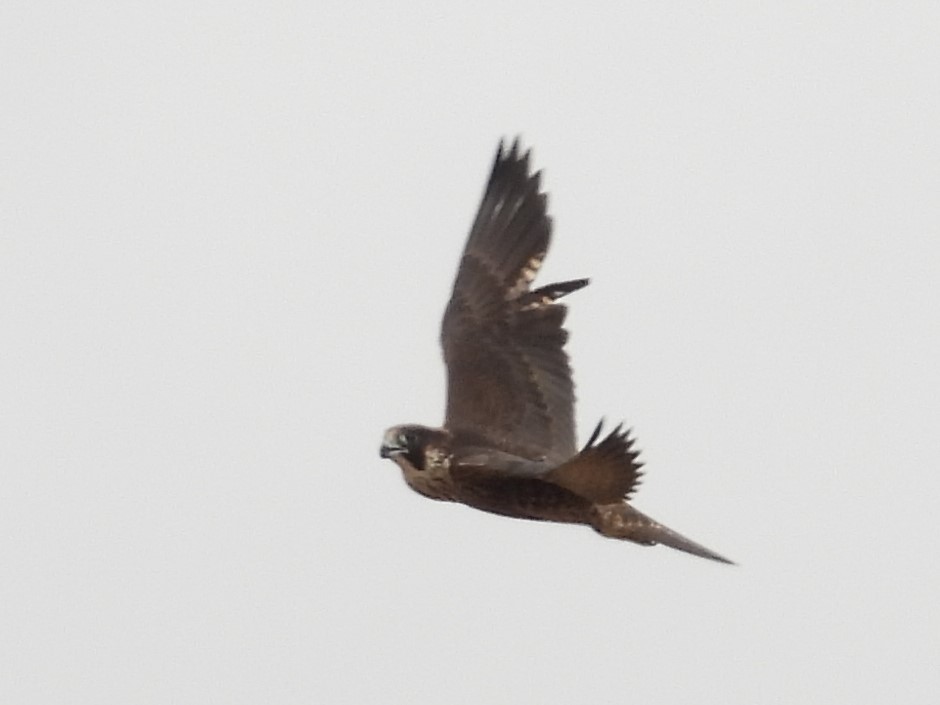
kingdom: Animalia
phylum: Chordata
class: Aves
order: Falconiformes
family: Falconidae
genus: Falco
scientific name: Falco peregrinus
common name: Peregrine falcon
